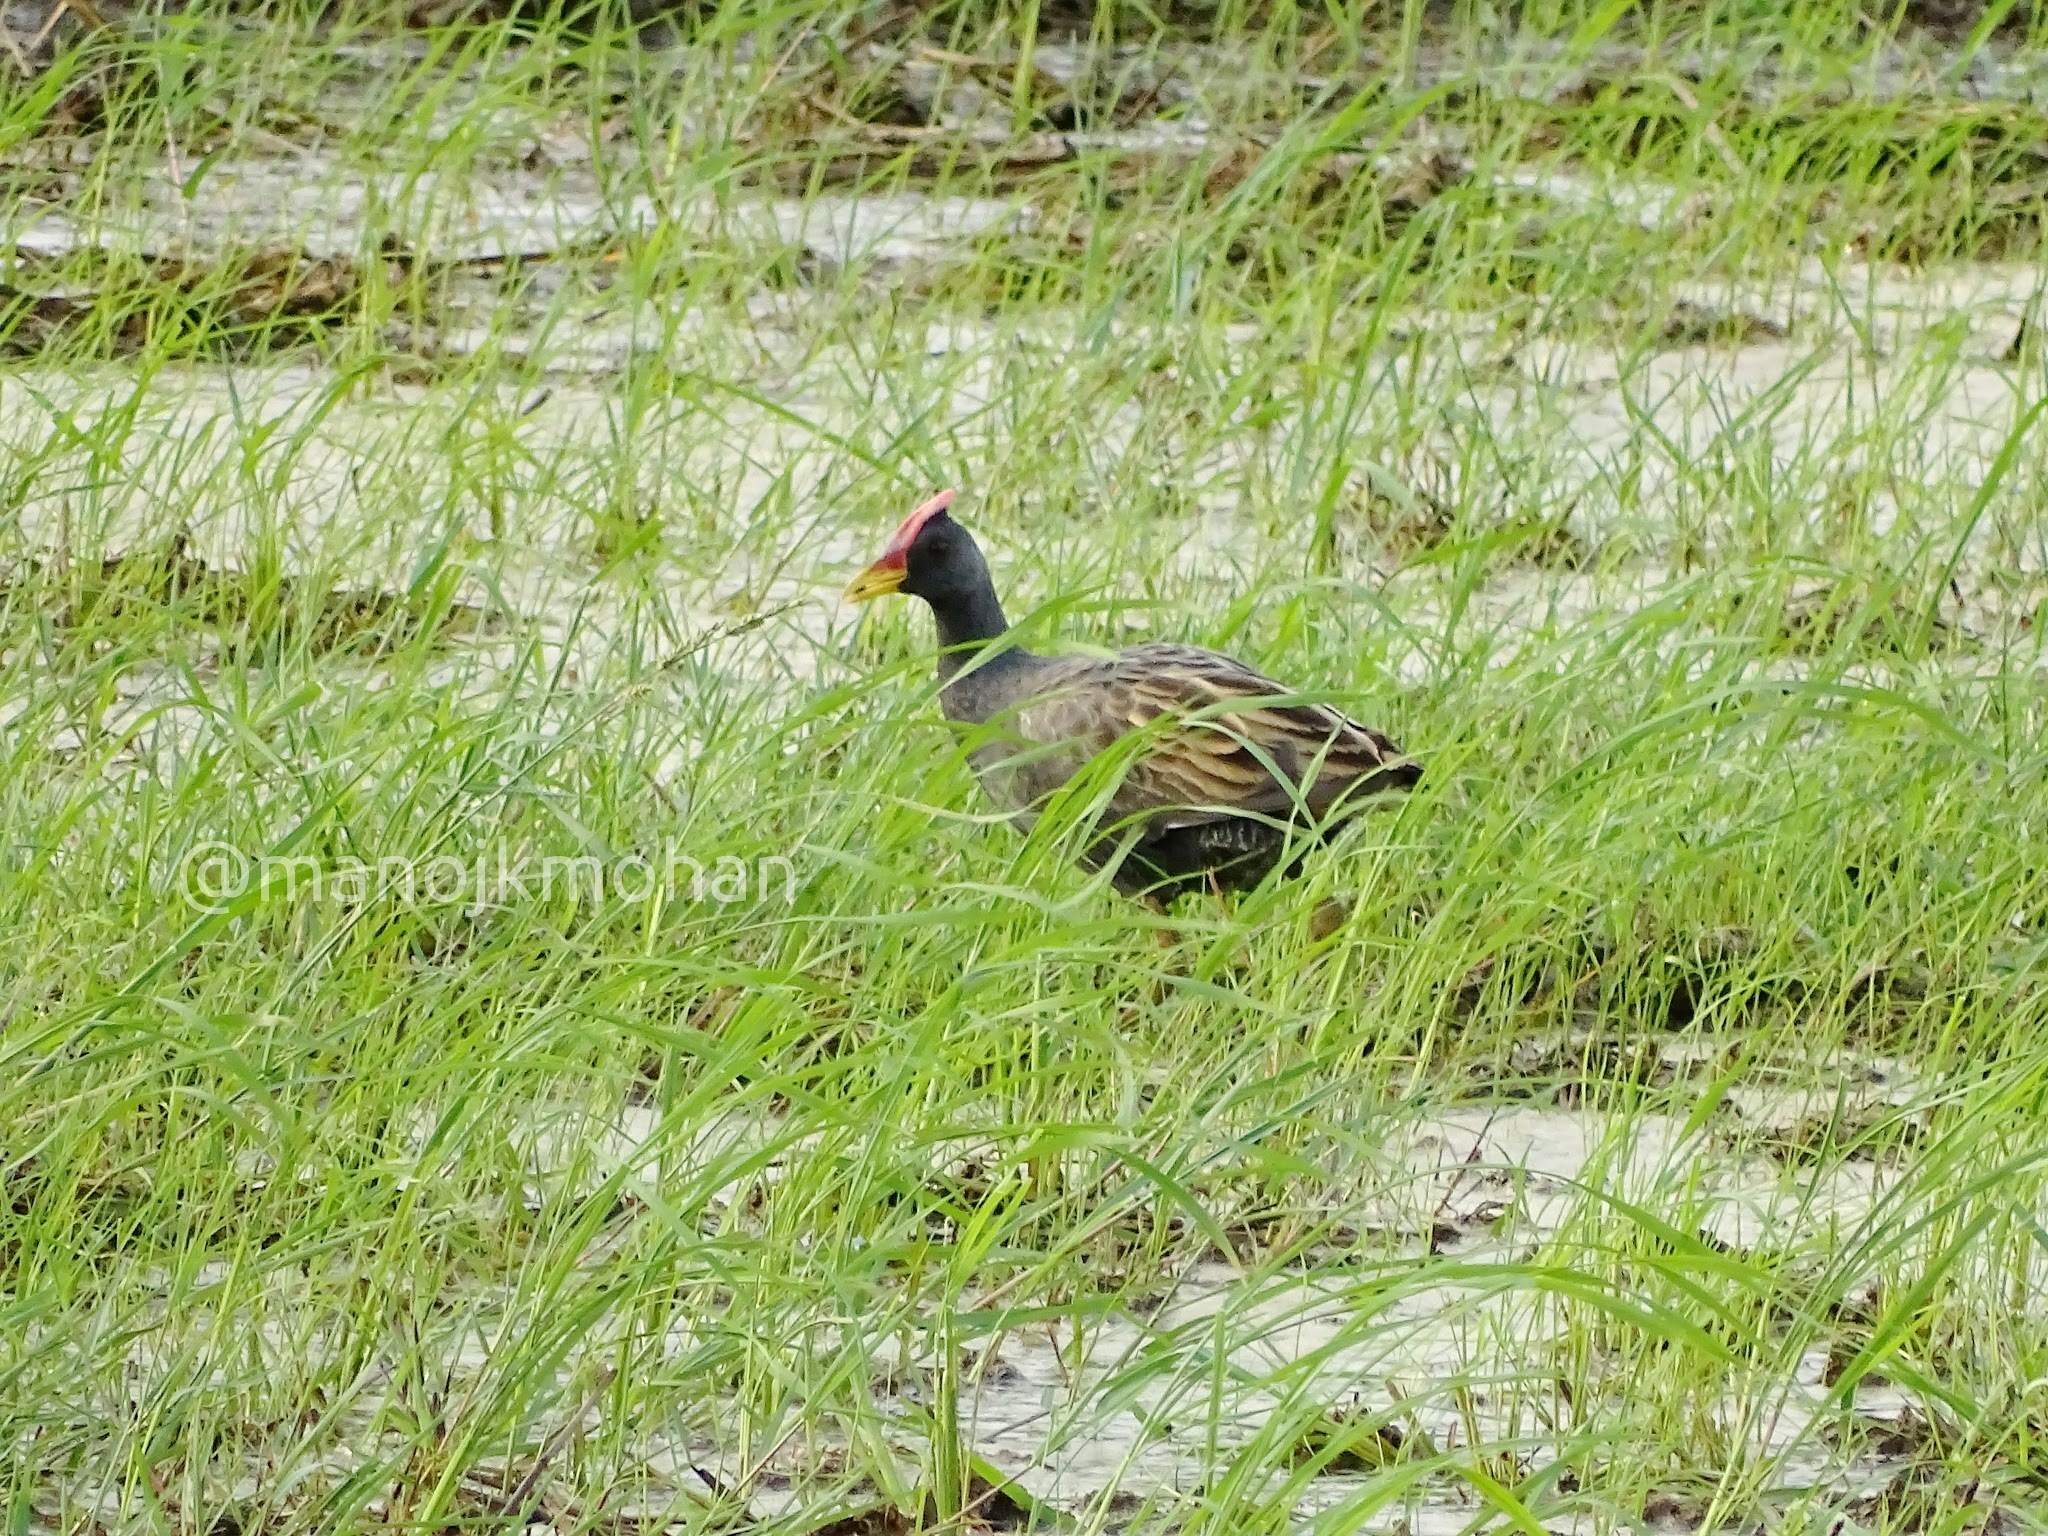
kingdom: Animalia
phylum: Chordata
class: Aves
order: Gruiformes
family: Rallidae
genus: Gallicrex
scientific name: Gallicrex cinerea
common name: Watercock
